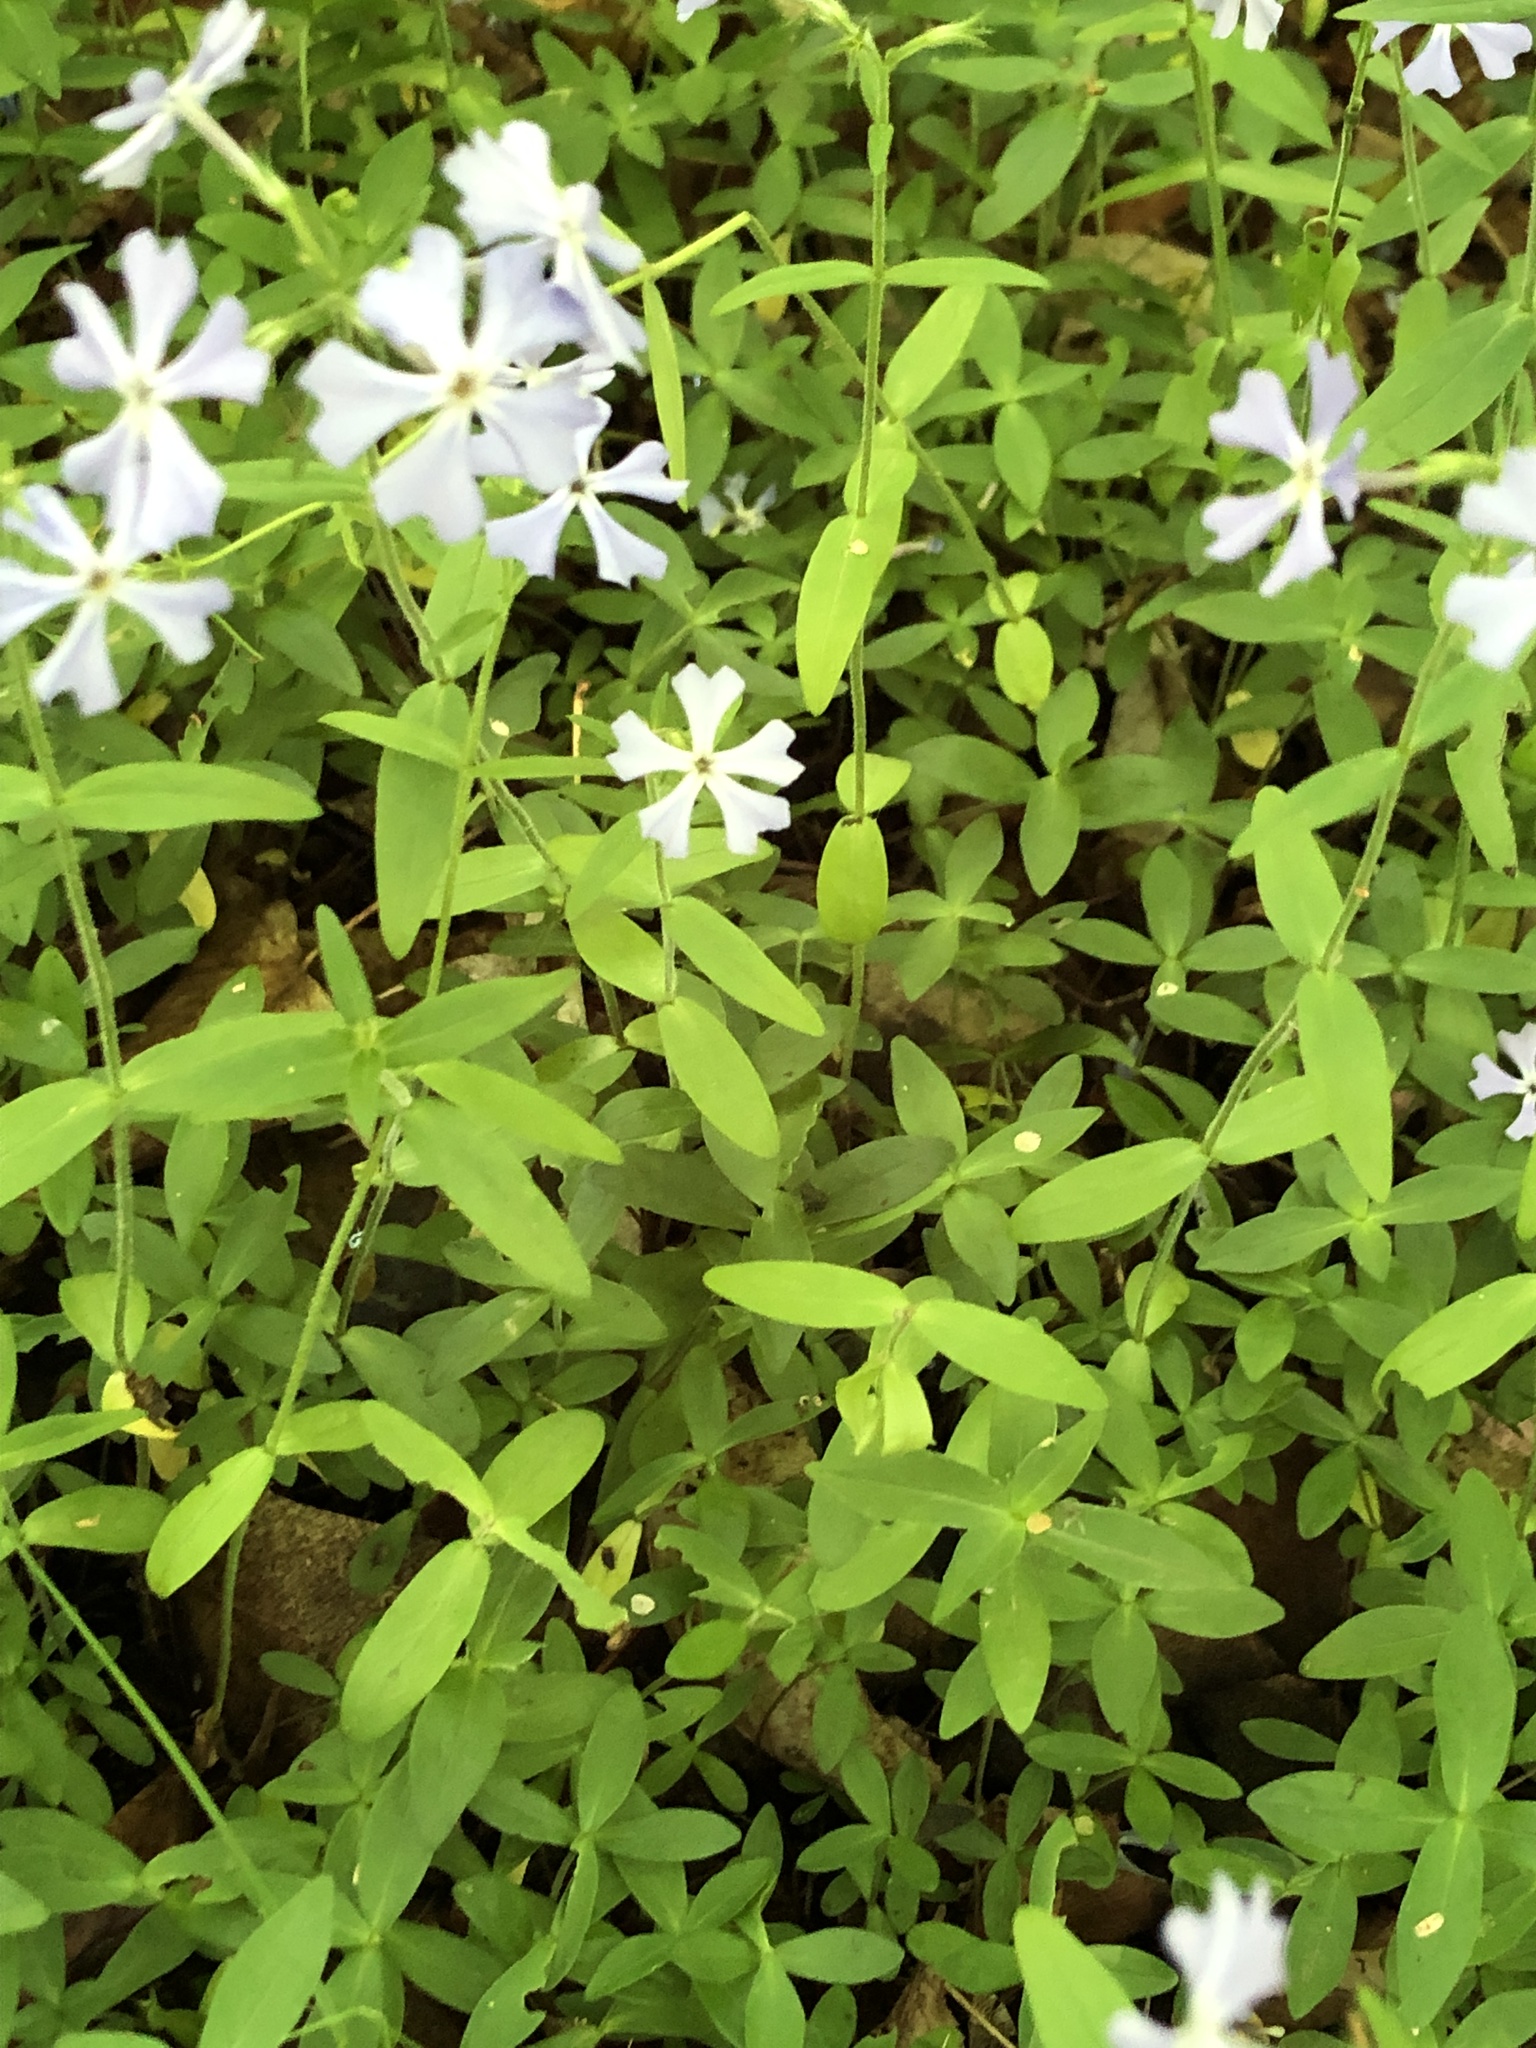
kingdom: Plantae
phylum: Tracheophyta
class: Magnoliopsida
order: Ericales
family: Polemoniaceae
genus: Phlox
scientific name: Phlox divaricata
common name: Blue phlox
